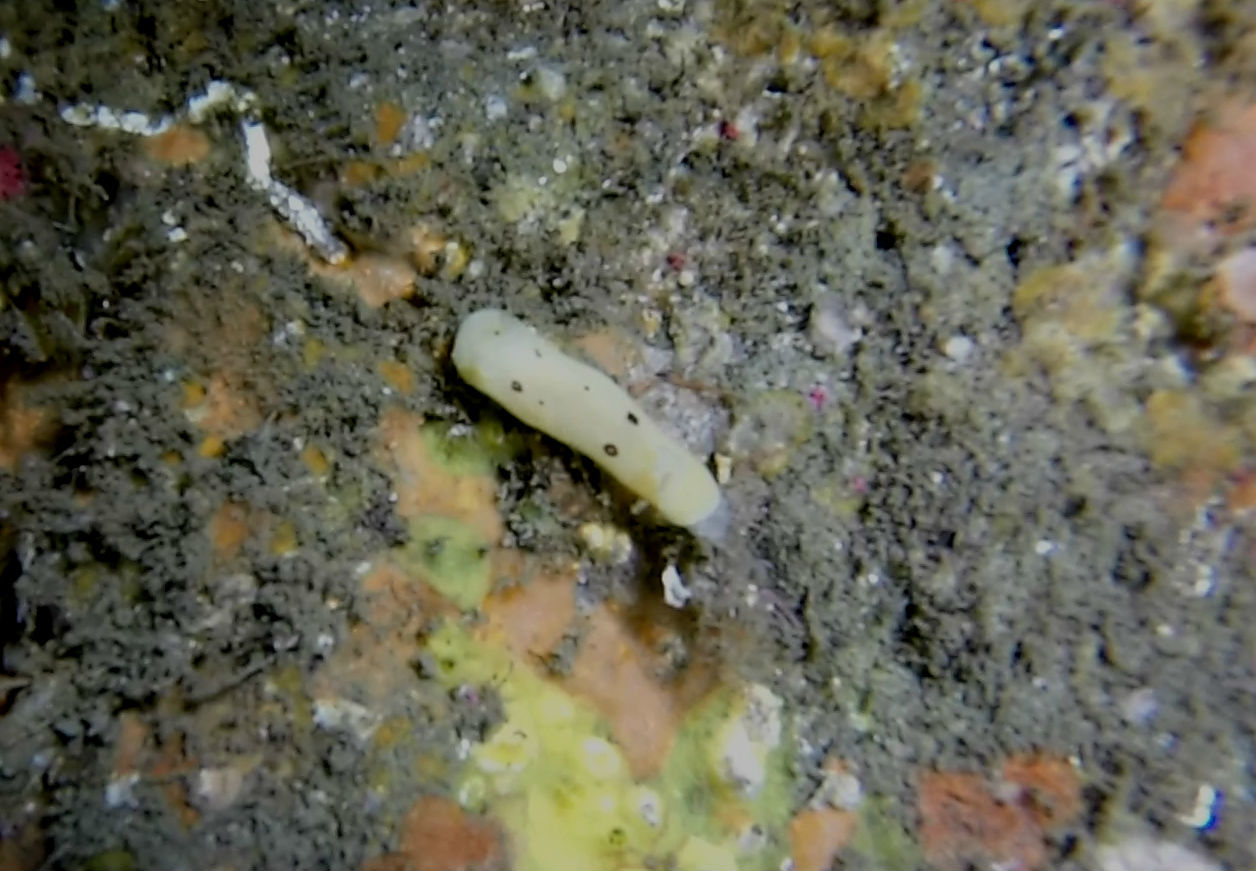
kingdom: Animalia
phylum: Mollusca
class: Gastropoda
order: Nudibranchia
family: Discodorididae
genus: Diaulula
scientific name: Diaulula sandiegensis
